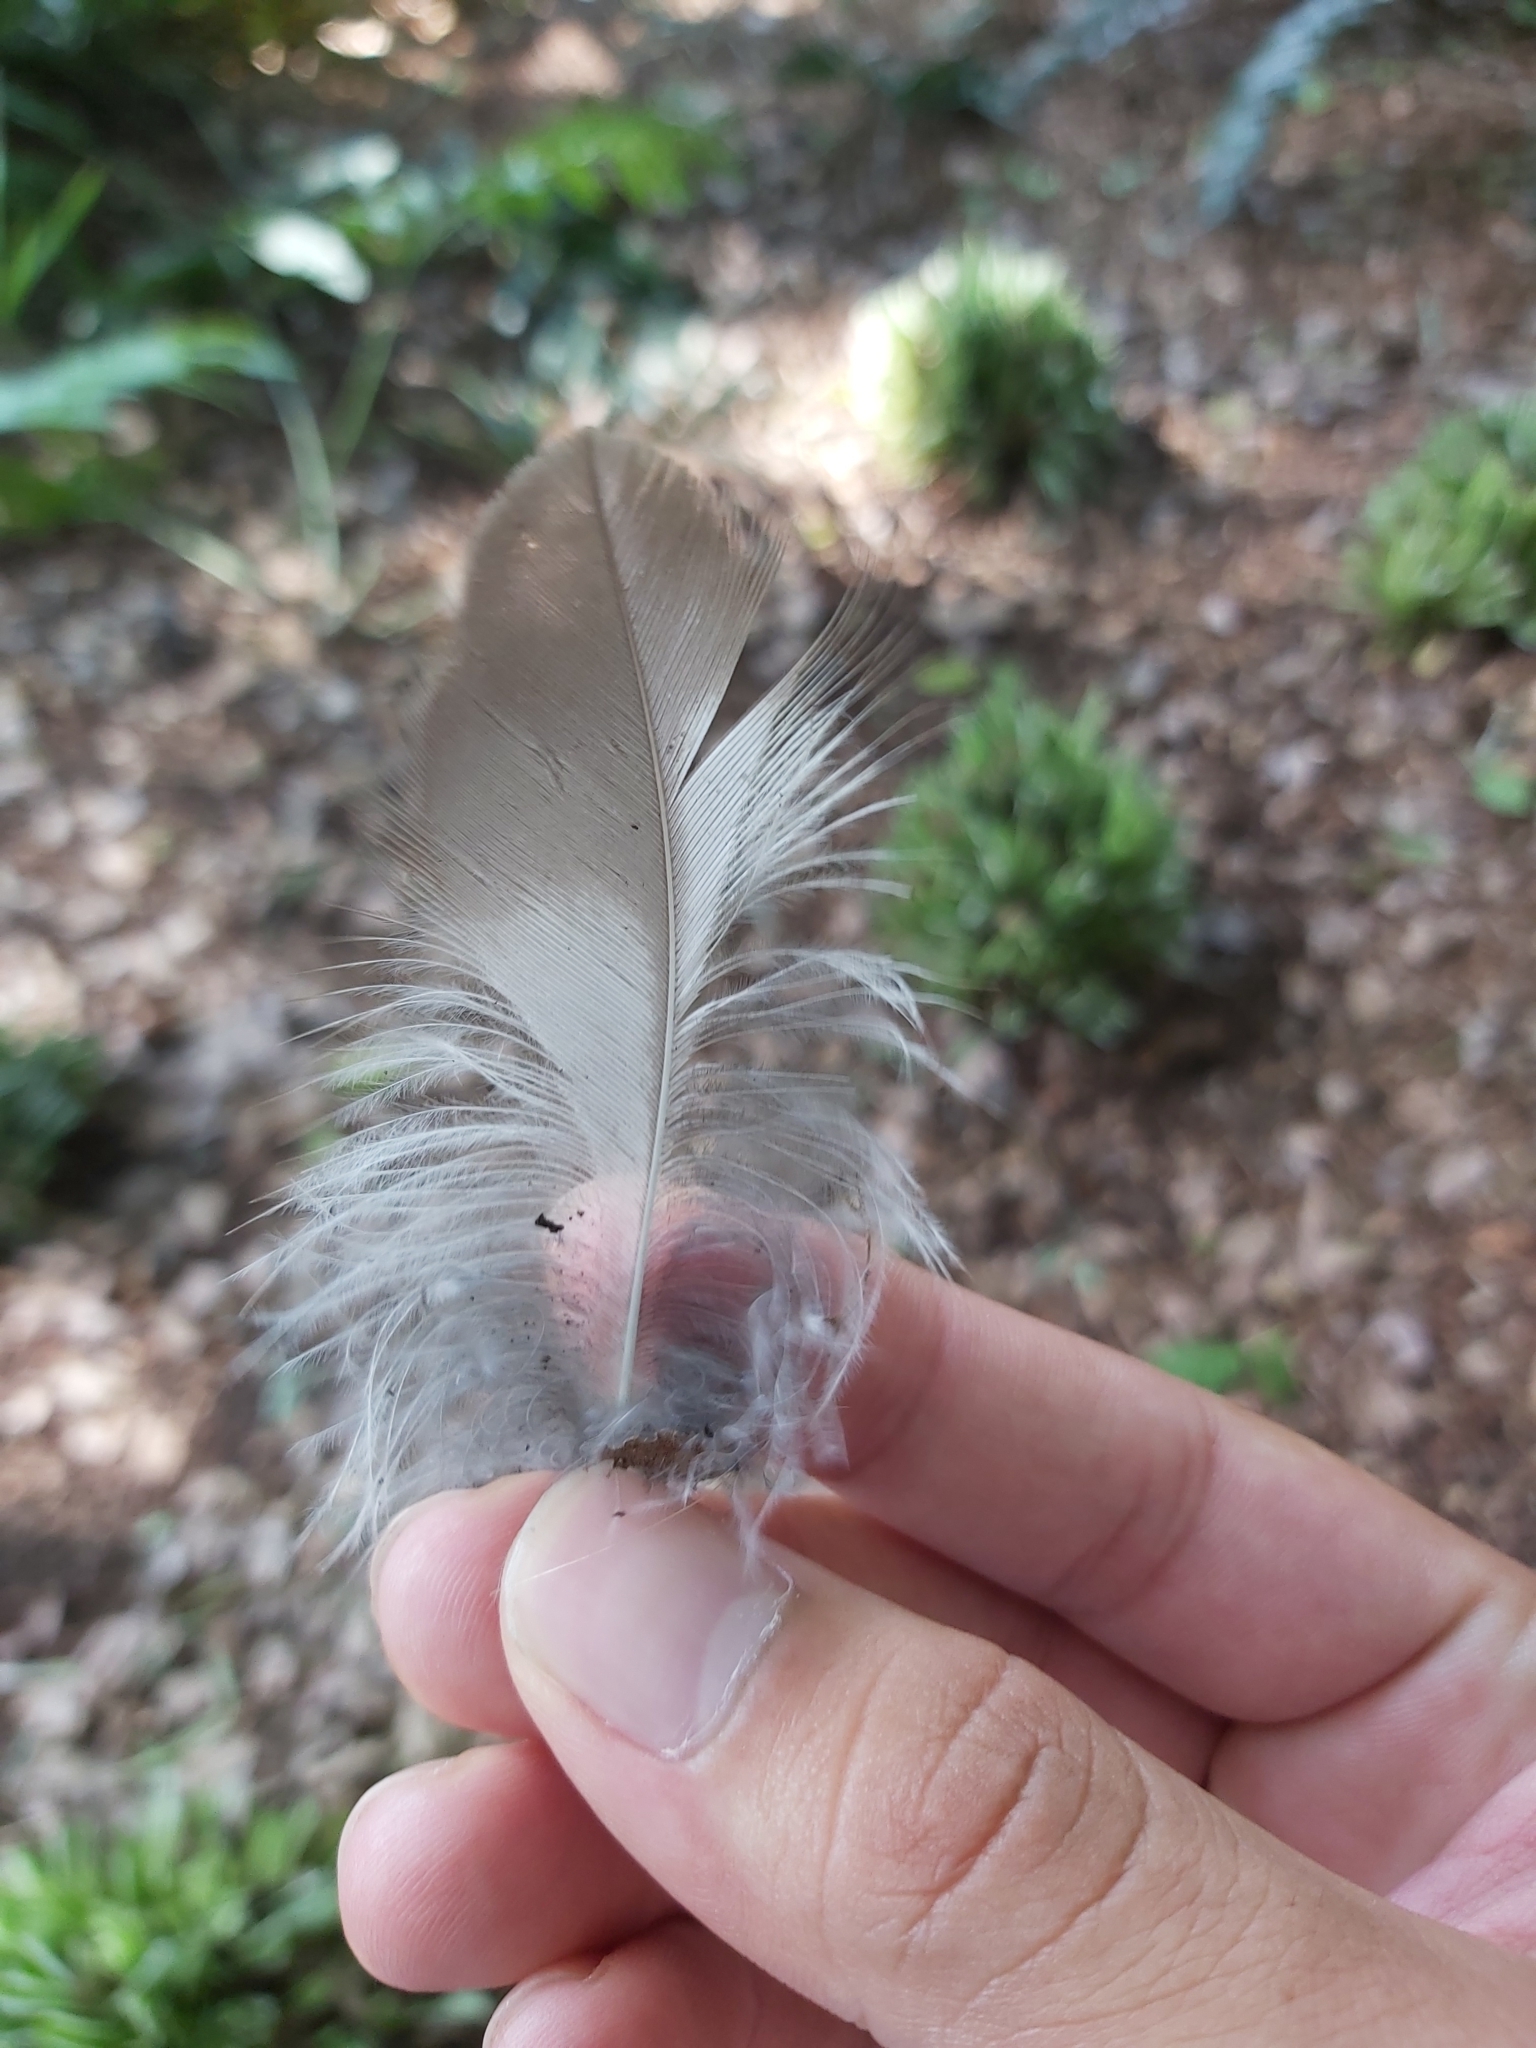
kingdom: Animalia
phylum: Chordata
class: Aves
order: Coraciiformes
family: Alcedinidae
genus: Dacelo
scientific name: Dacelo novaeguineae
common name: Laughing kookaburra
